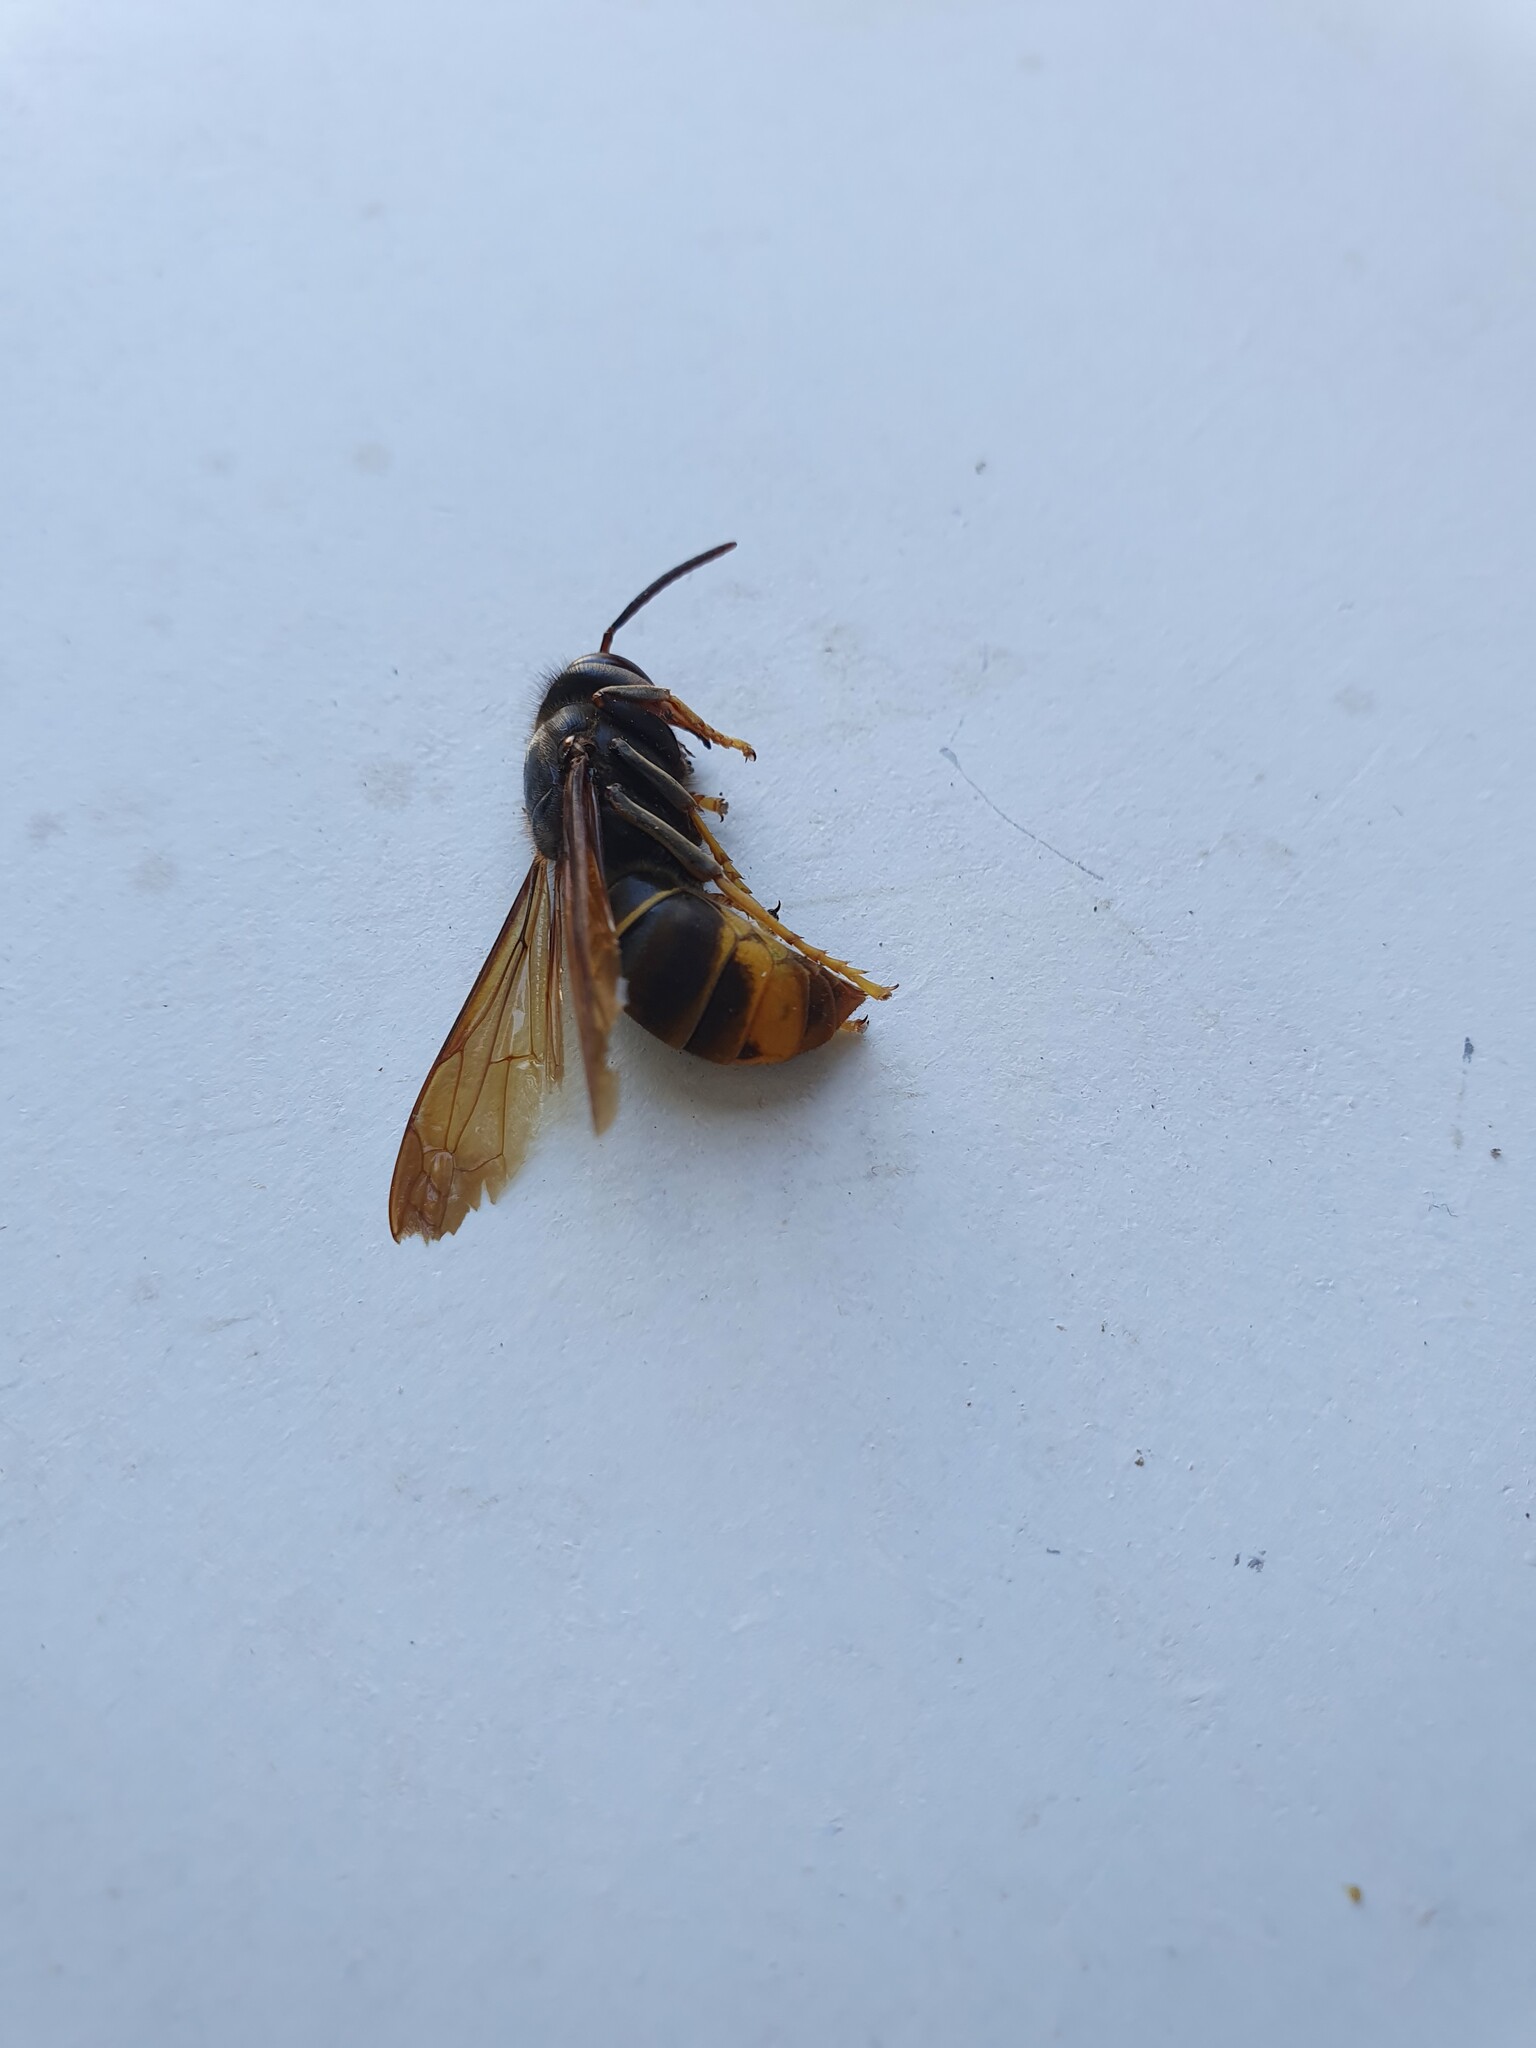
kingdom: Animalia
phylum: Arthropoda
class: Insecta
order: Hymenoptera
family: Vespidae
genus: Vespa
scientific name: Vespa velutina
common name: Asian hornet
